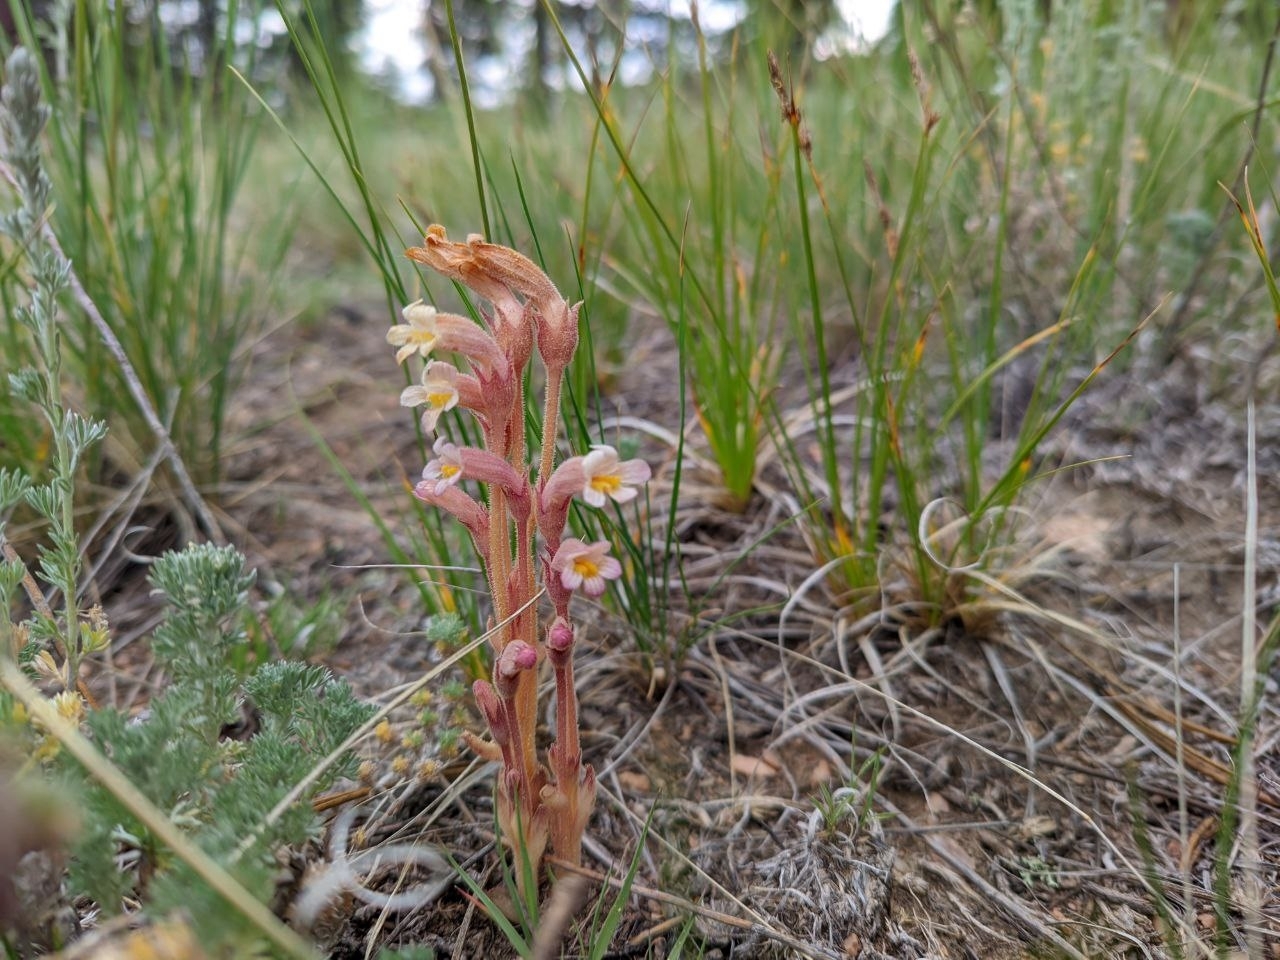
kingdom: Plantae
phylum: Tracheophyta
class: Magnoliopsida
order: Lamiales
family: Orobanchaceae
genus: Aphyllon
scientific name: Aphyllon fasciculatum
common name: Clustered broomrape
